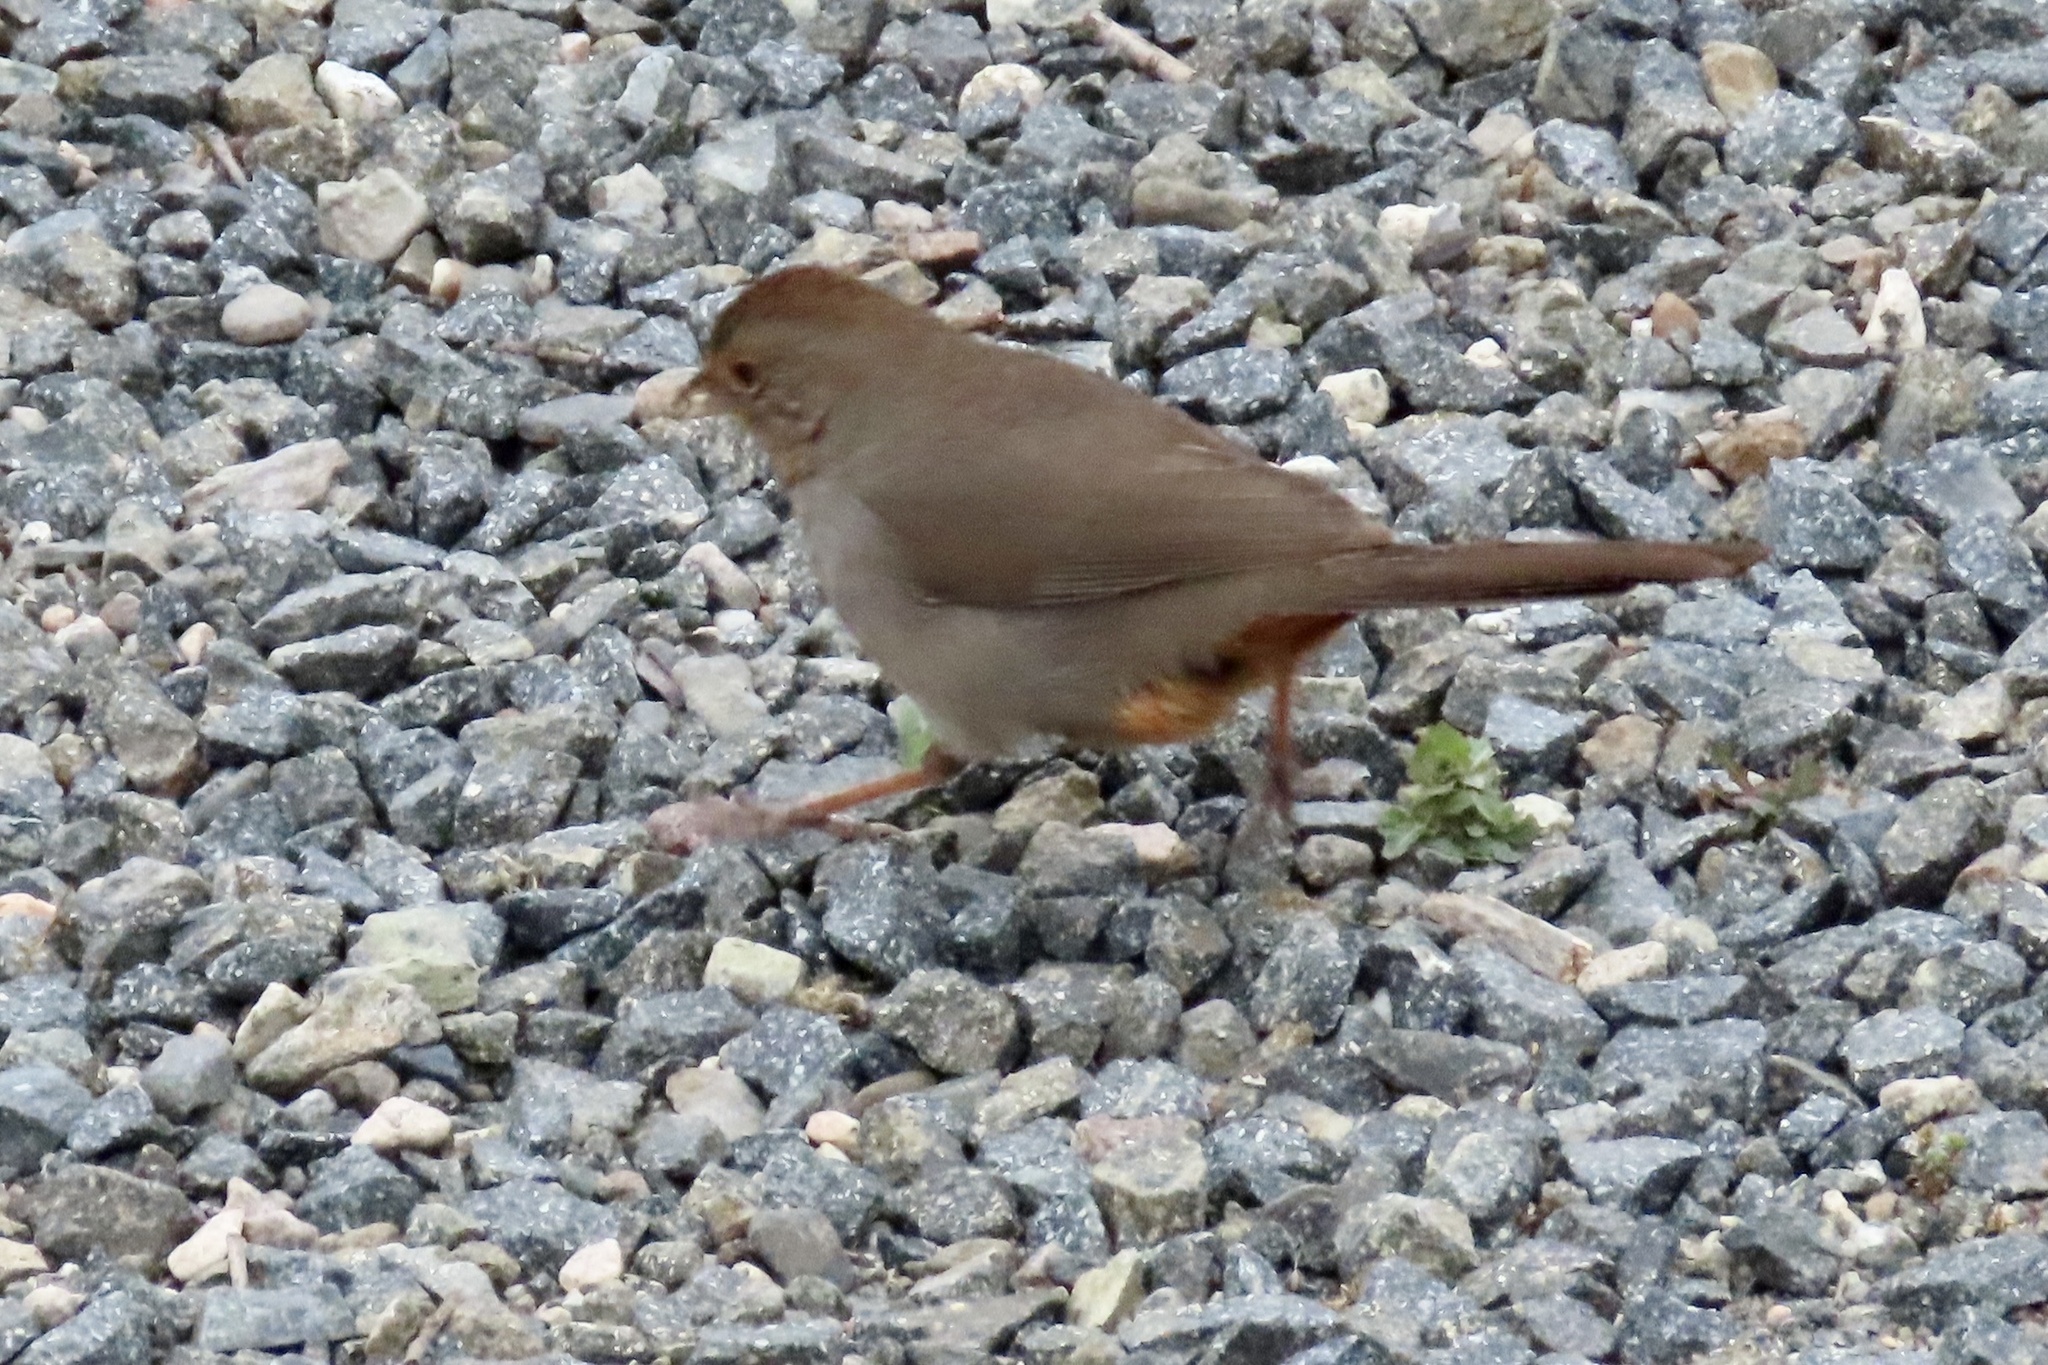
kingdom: Animalia
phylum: Chordata
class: Aves
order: Passeriformes
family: Passerellidae
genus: Melozone
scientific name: Melozone crissalis
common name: California towhee
